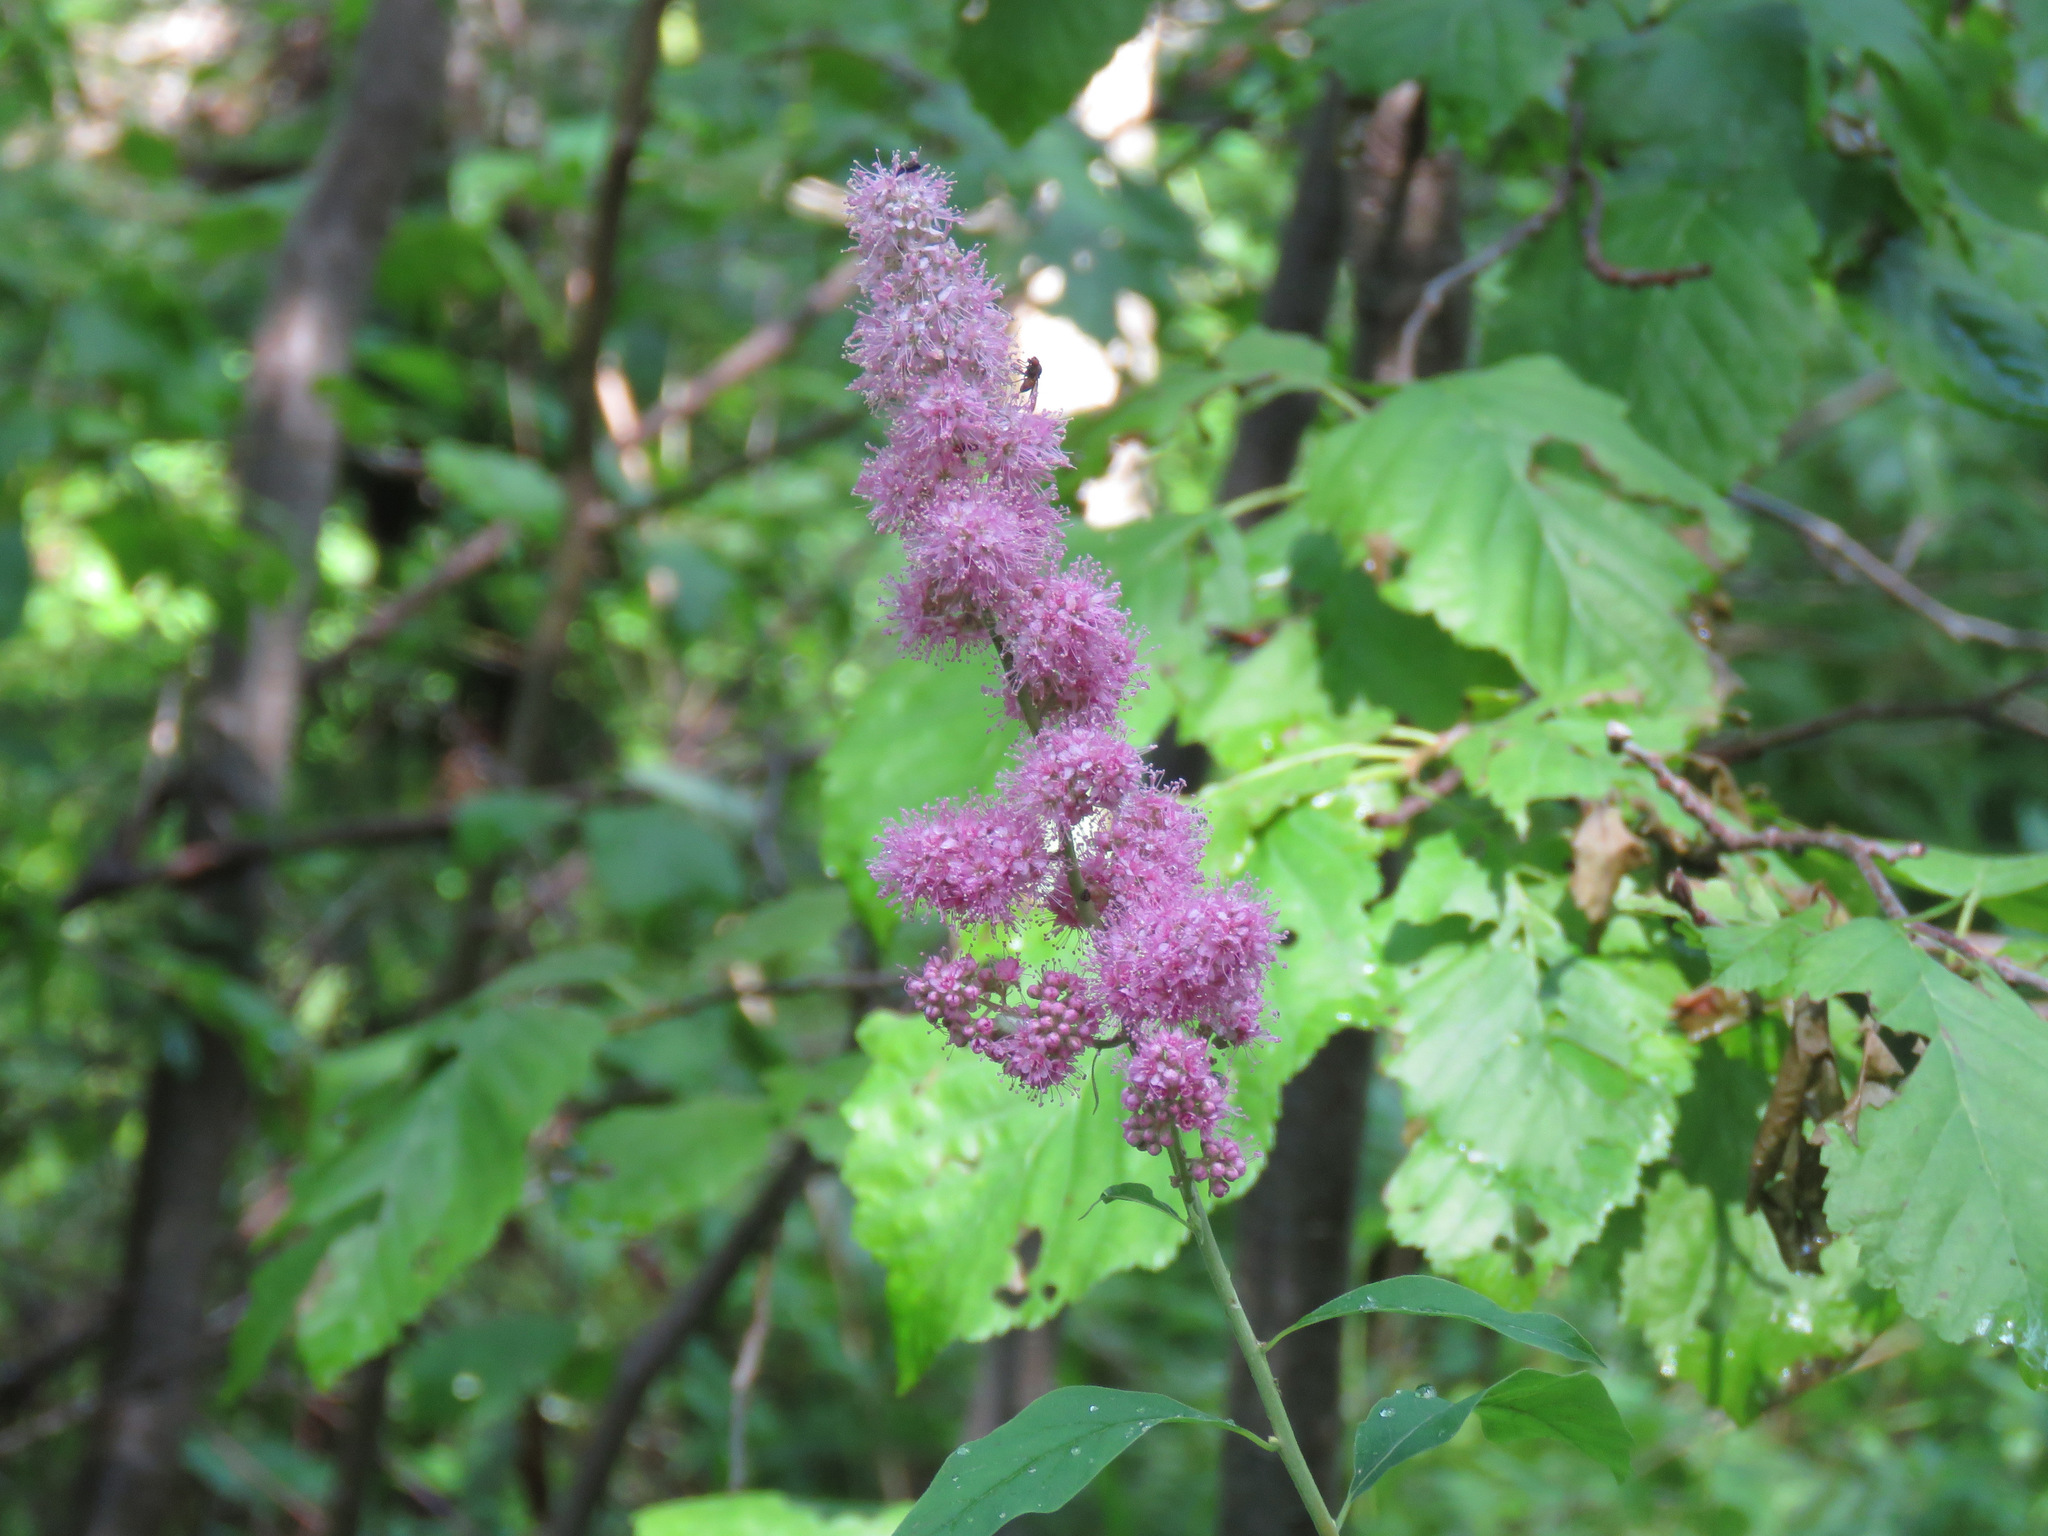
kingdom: Plantae
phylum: Tracheophyta
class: Magnoliopsida
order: Rosales
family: Rosaceae
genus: Spiraea
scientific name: Spiraea douglasii
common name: Steeplebush
